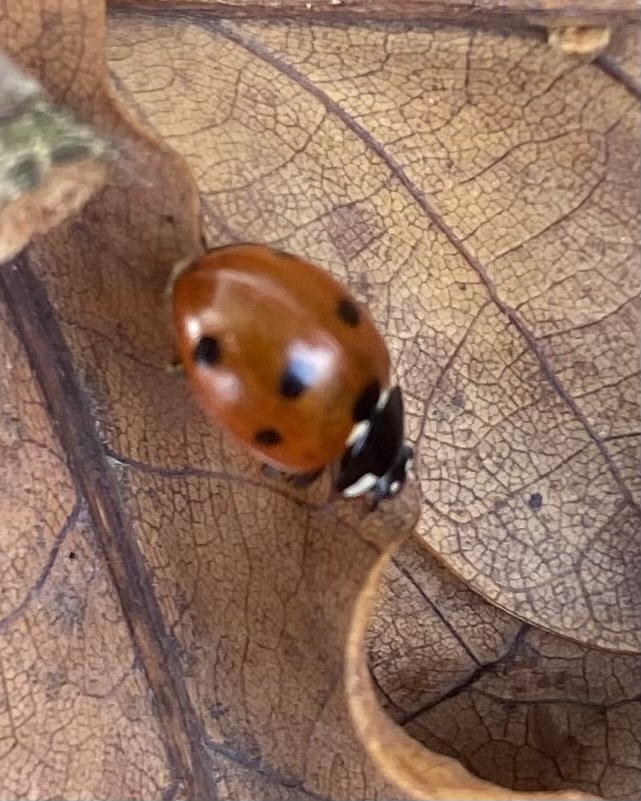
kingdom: Animalia
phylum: Arthropoda
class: Insecta
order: Coleoptera
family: Coccinellidae
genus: Coccinella
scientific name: Coccinella septempunctata
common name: Sevenspotted lady beetle
